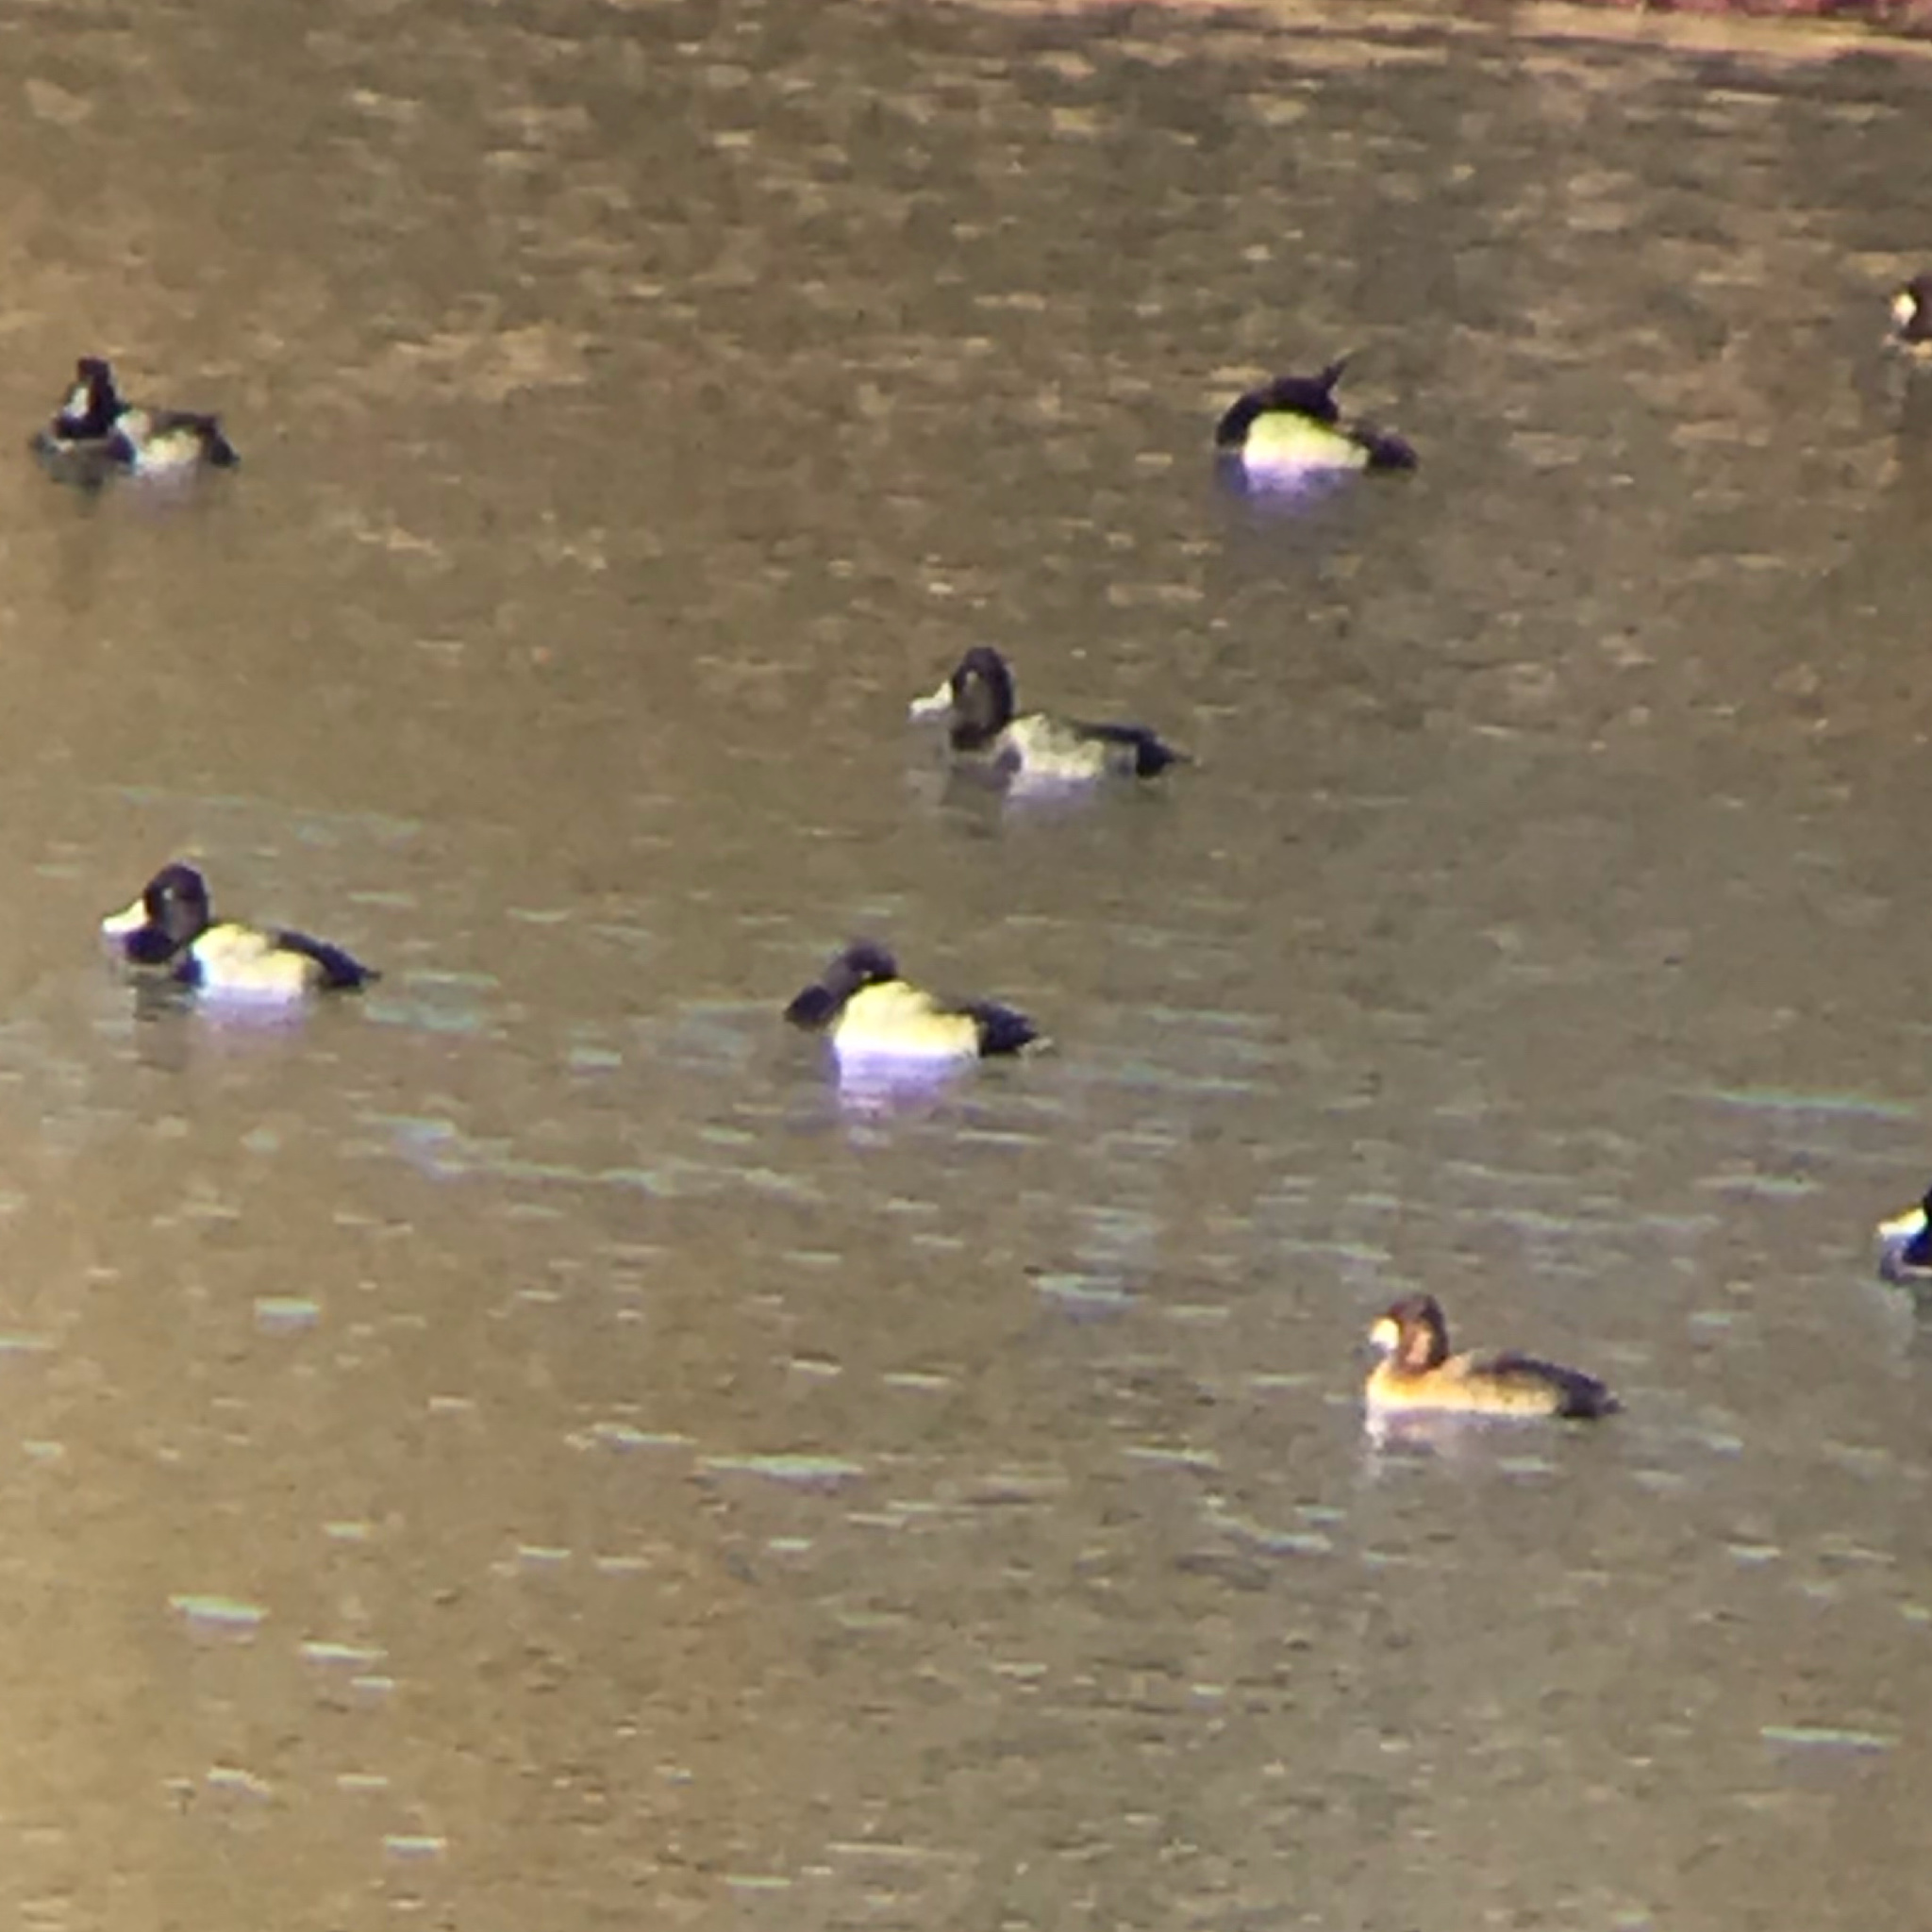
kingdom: Animalia
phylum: Chordata
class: Aves
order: Anseriformes
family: Anatidae
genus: Aythya
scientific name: Aythya affinis
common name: Lesser scaup
